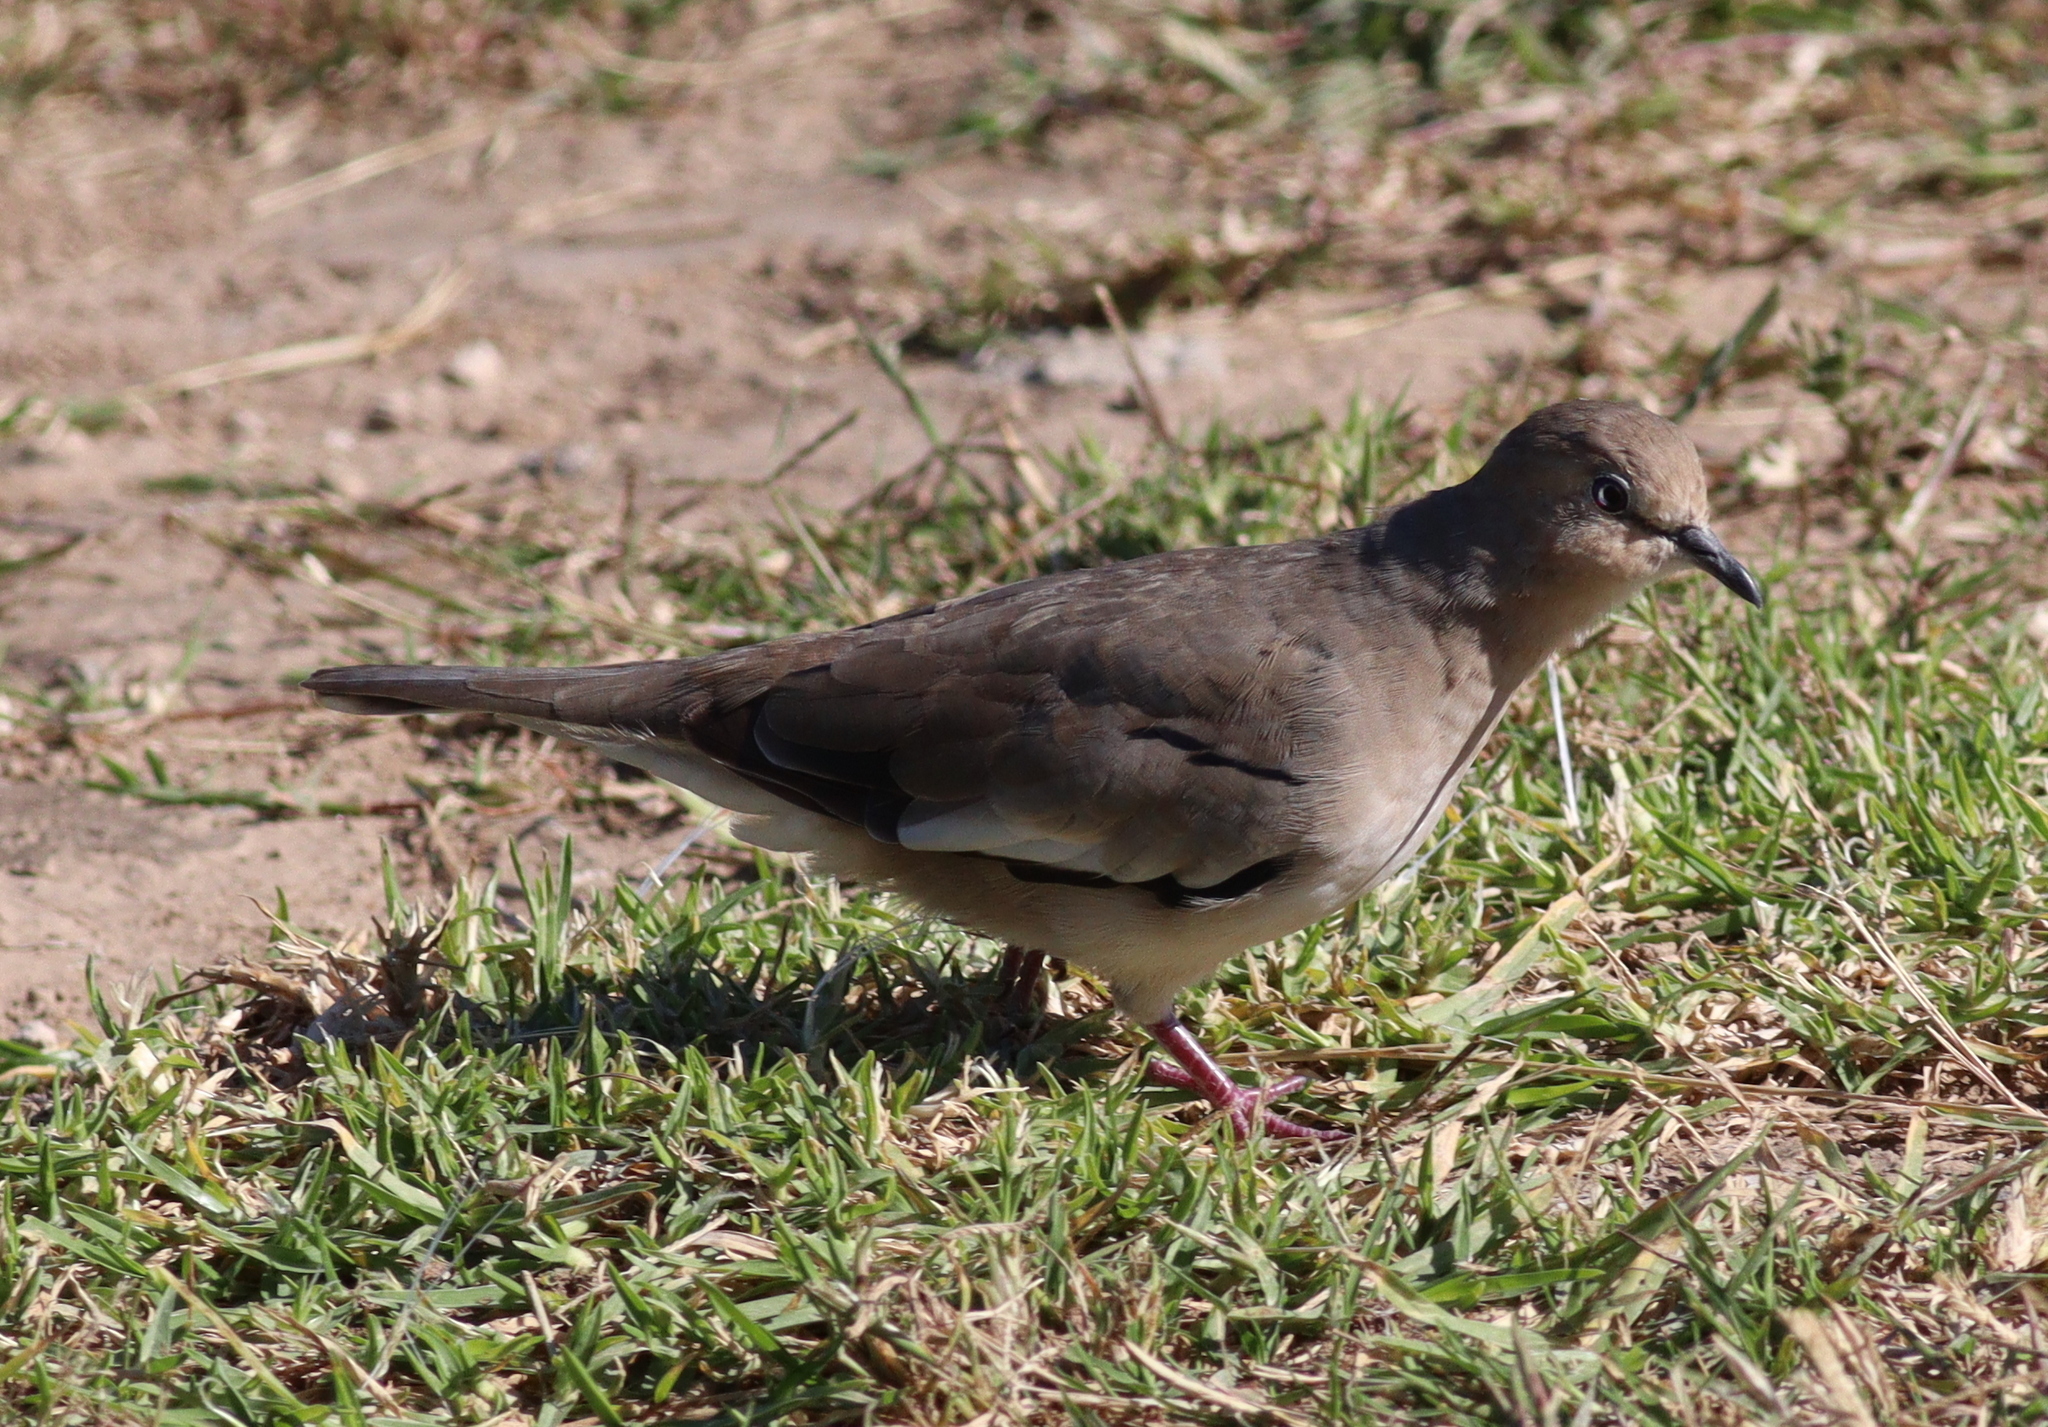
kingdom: Animalia
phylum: Chordata
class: Aves
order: Columbiformes
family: Columbidae
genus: Columbina
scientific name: Columbina picui
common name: Picui ground dove
